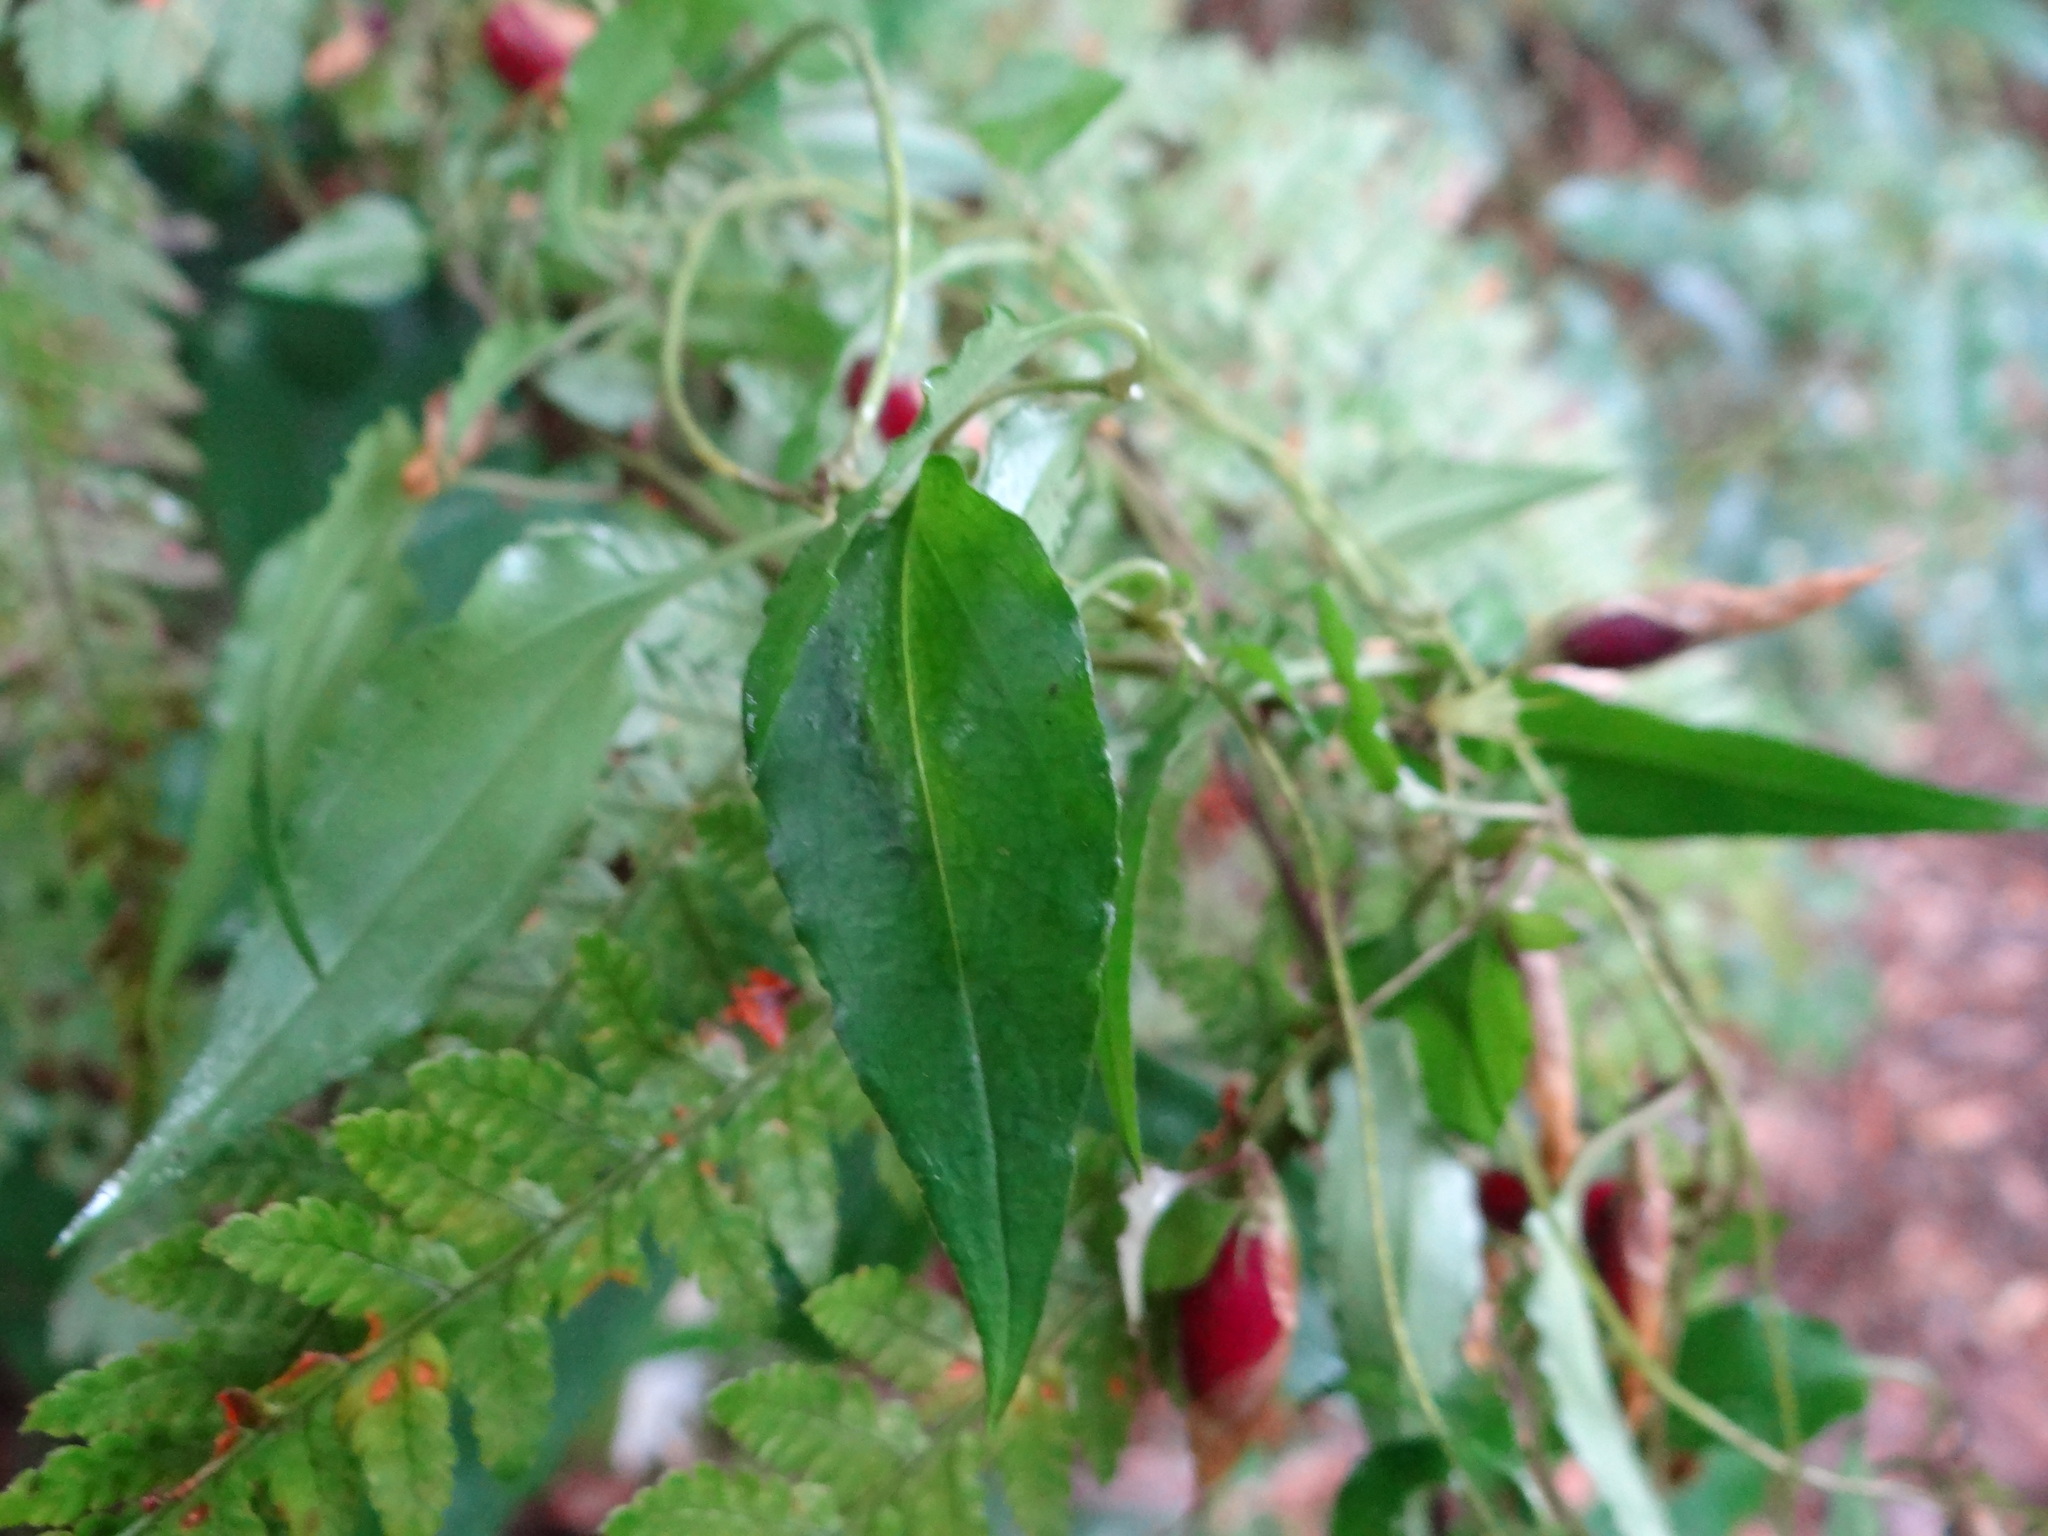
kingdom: Plantae
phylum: Tracheophyta
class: Magnoliopsida
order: Gentianales
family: Gentianaceae
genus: Tripterospermum
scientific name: Tripterospermum luzonense
